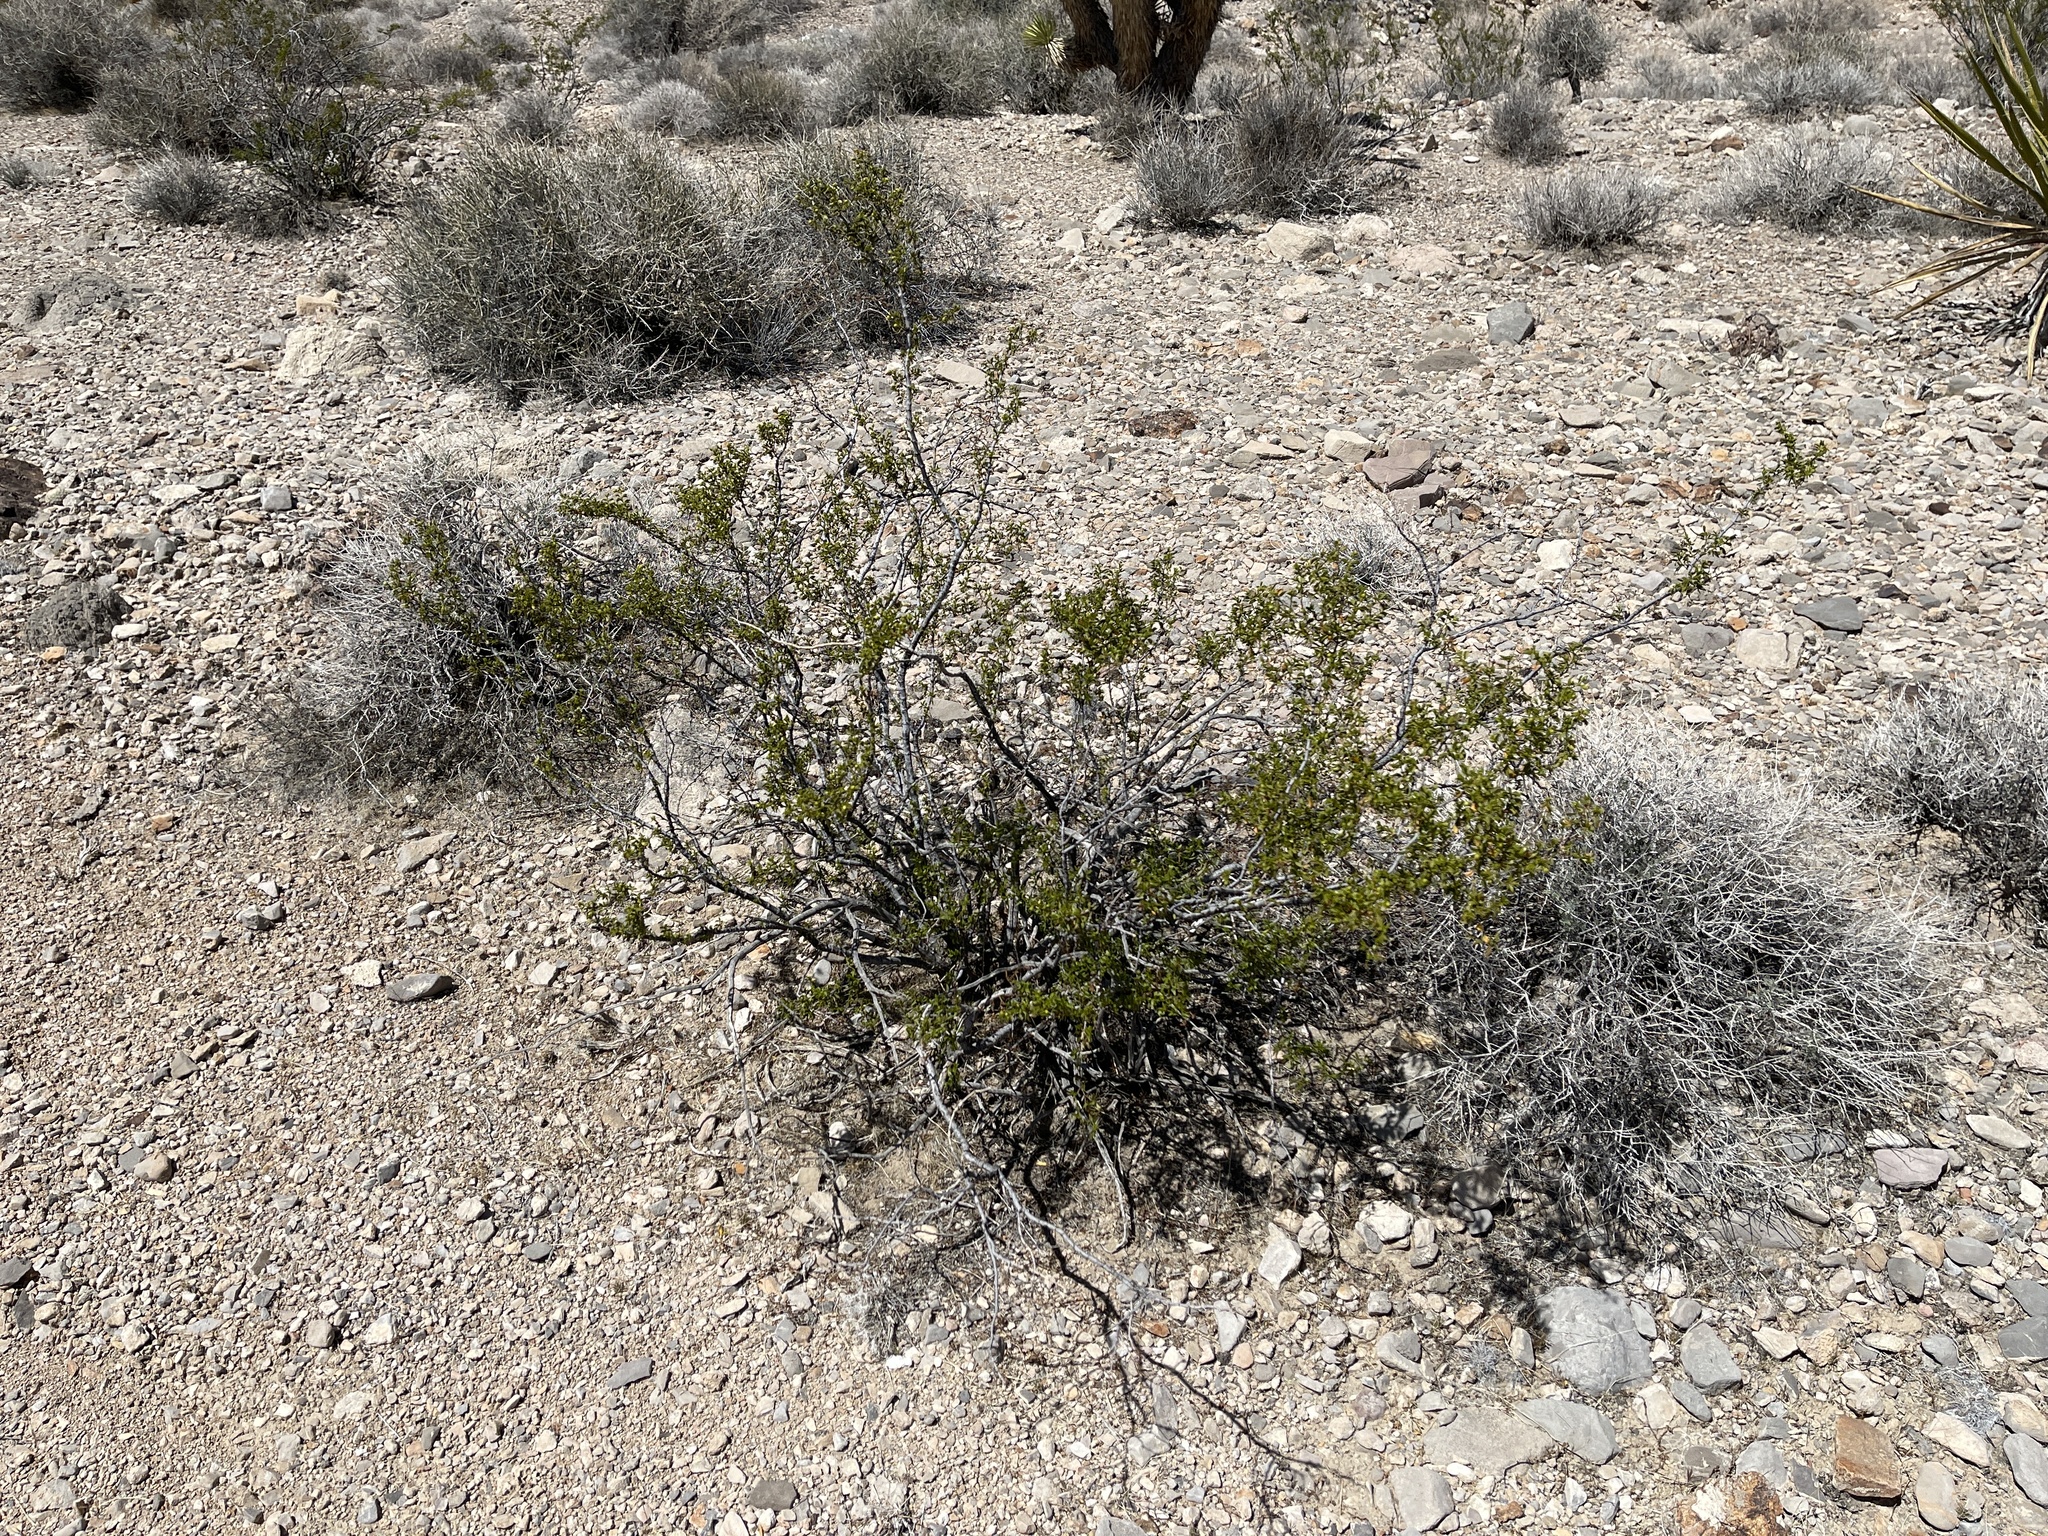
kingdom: Plantae
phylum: Tracheophyta
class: Magnoliopsida
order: Zygophyllales
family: Zygophyllaceae
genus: Larrea
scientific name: Larrea tridentata
